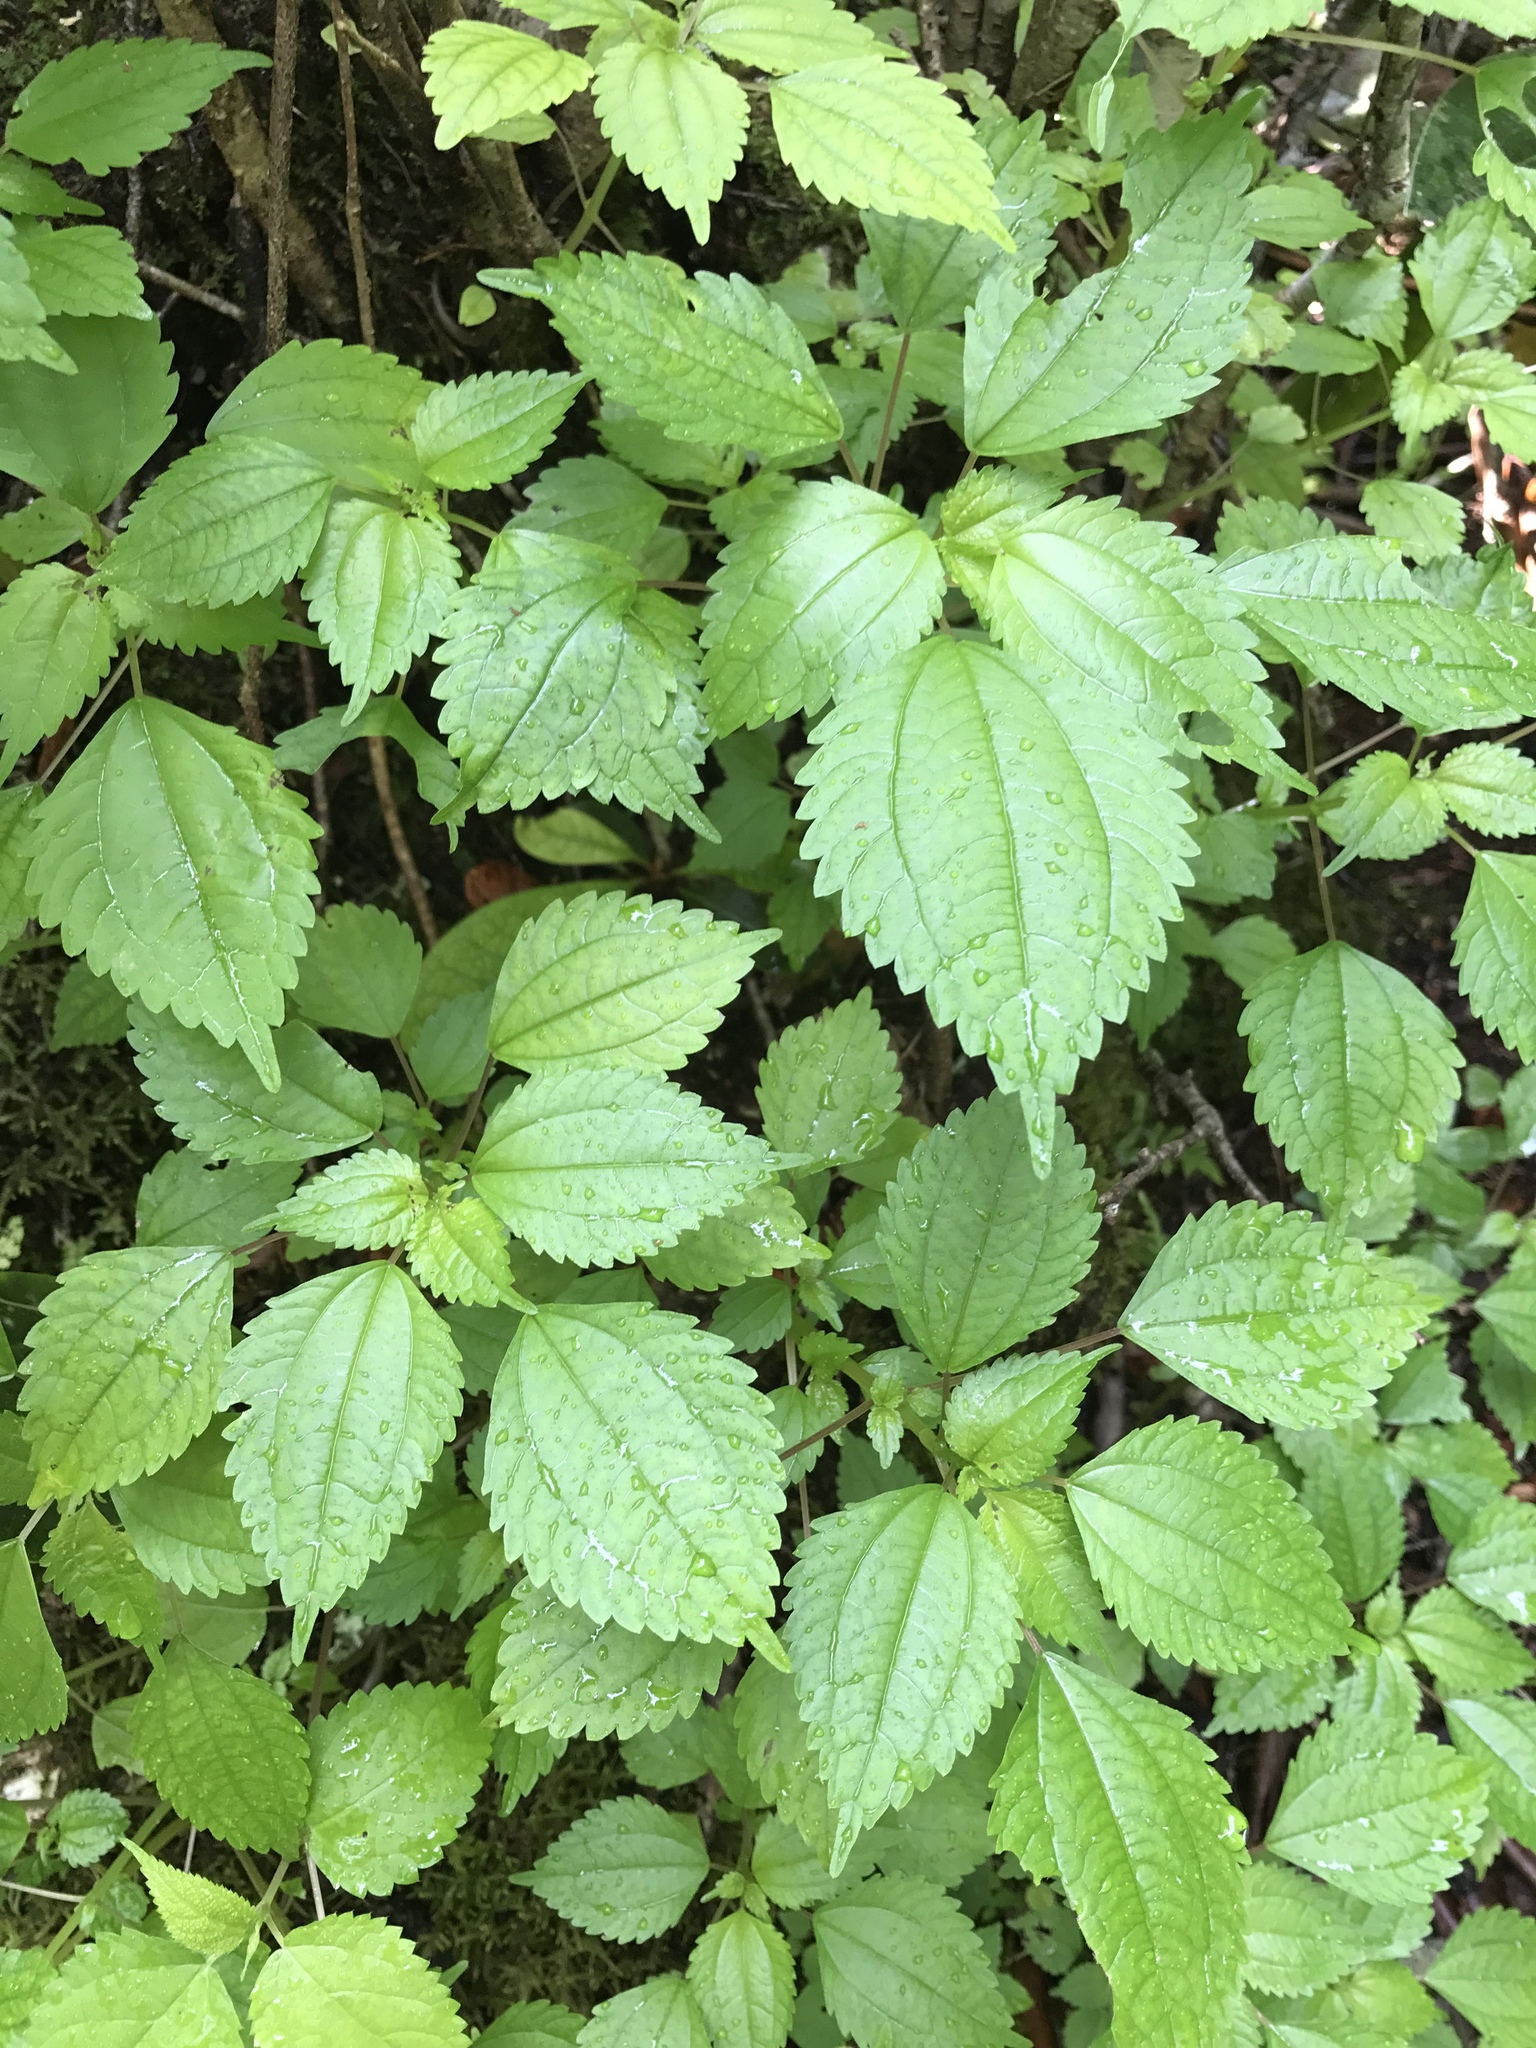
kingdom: Plantae
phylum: Tracheophyta
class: Magnoliopsida
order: Rosales
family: Urticaceae
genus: Pilea
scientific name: Pilea pumila
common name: Clearweed
